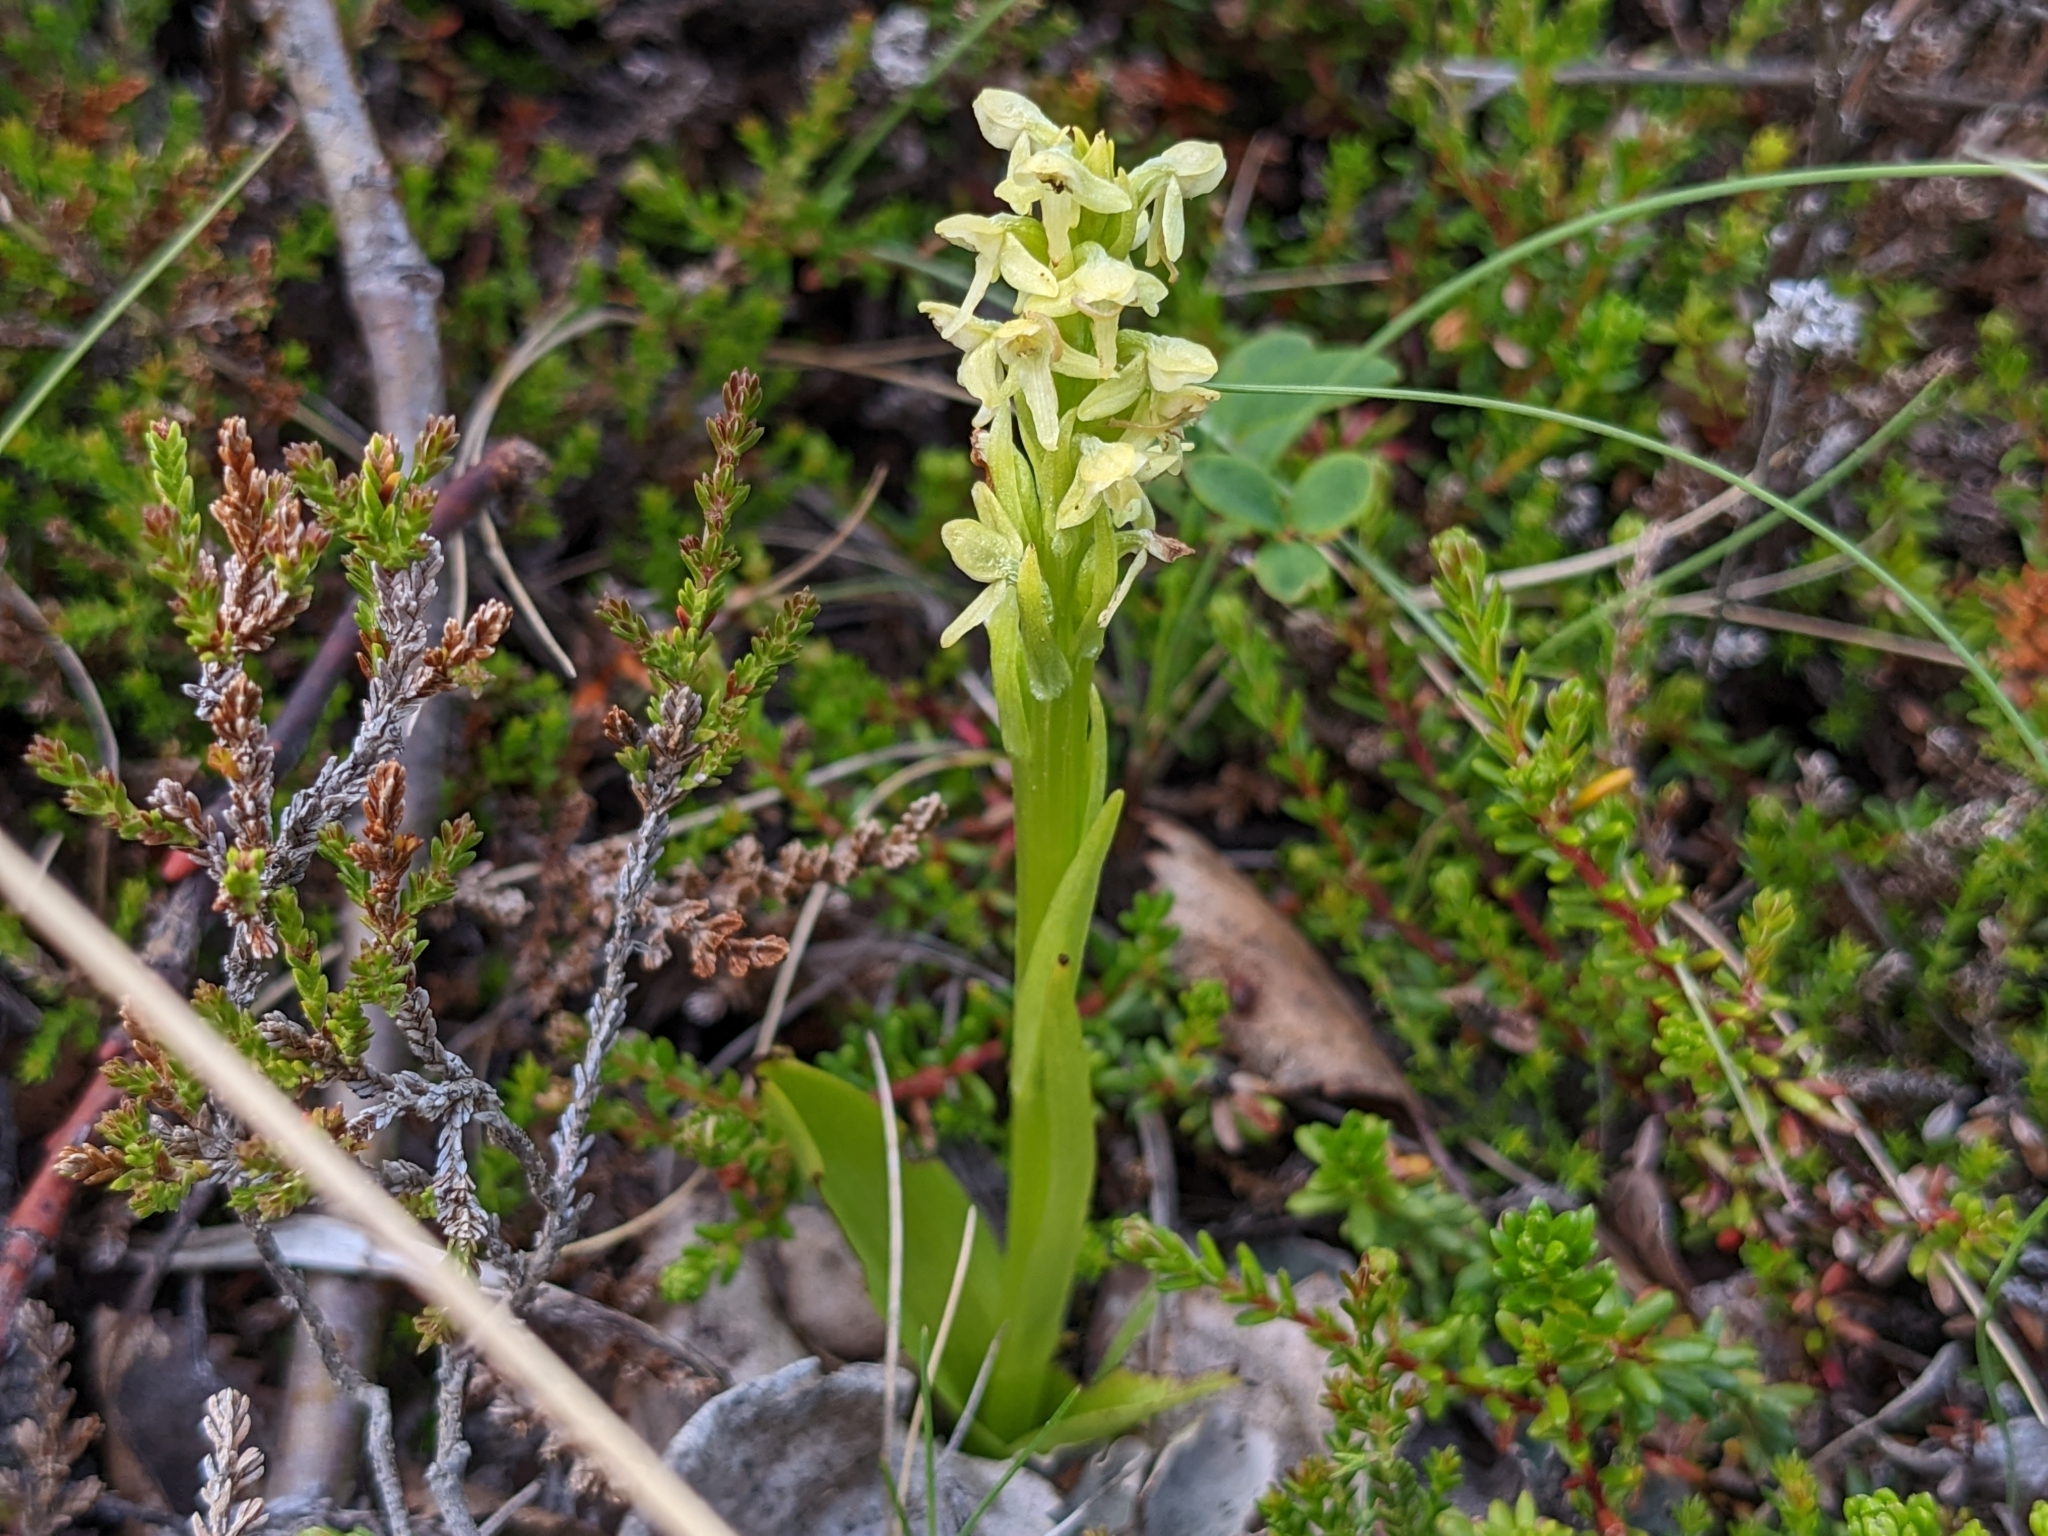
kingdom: Plantae
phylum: Tracheophyta
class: Liliopsida
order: Asparagales
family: Orchidaceae
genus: Platanthera
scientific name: Platanthera hyperborea
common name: Northern green orchid
